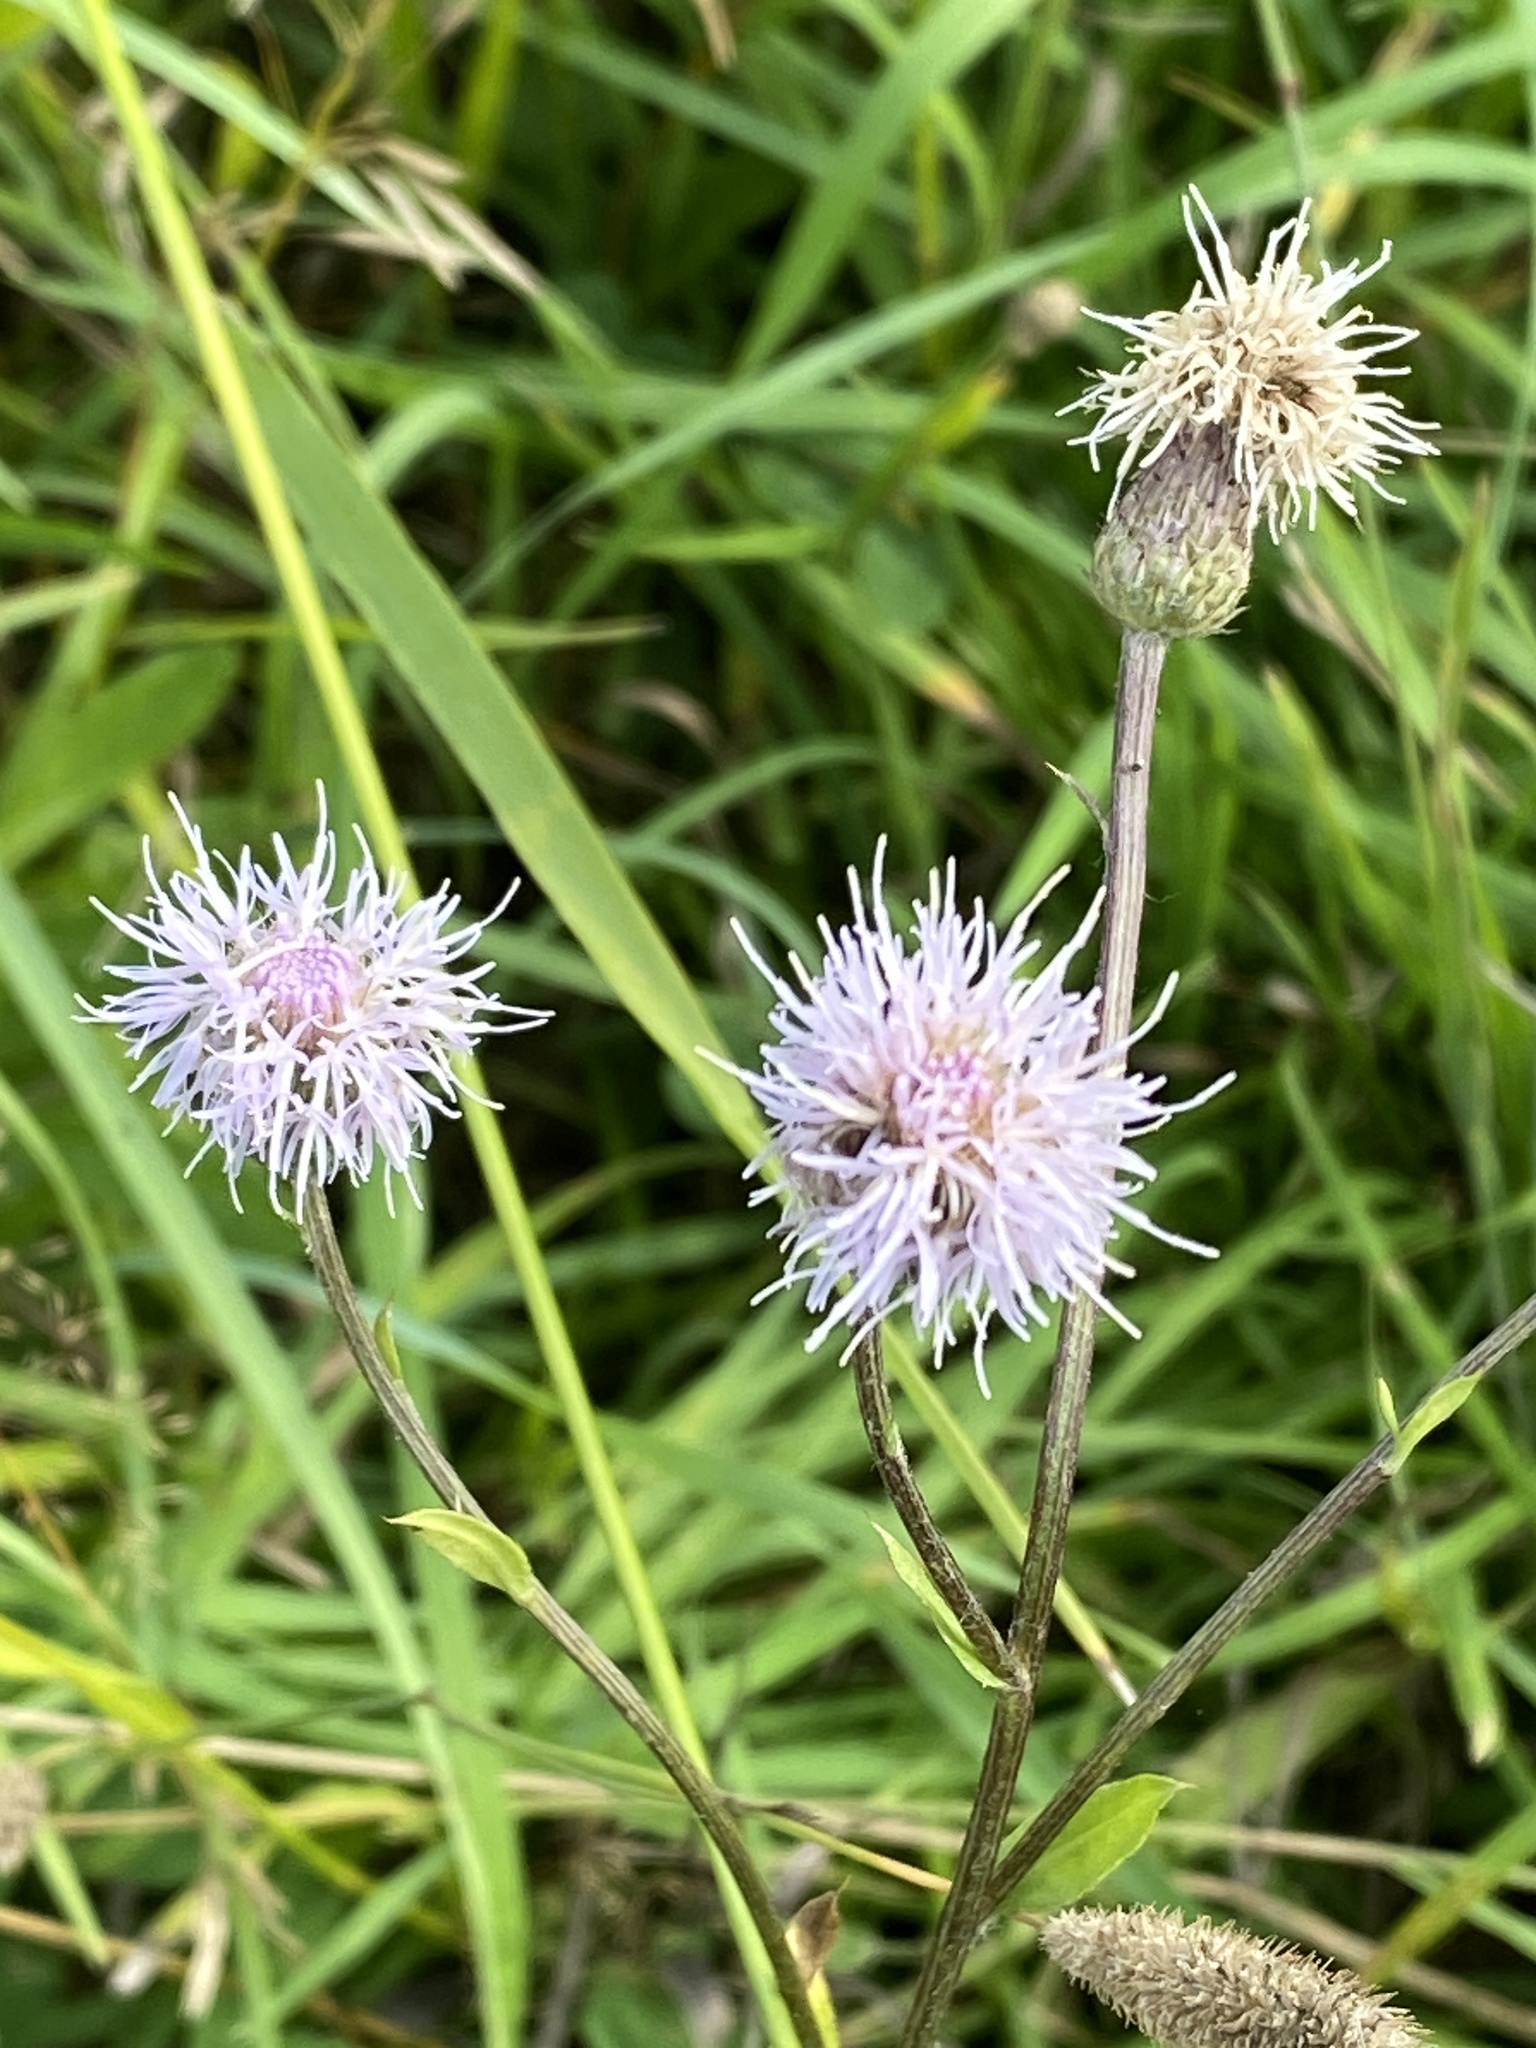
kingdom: Plantae
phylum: Tracheophyta
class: Magnoliopsida
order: Asterales
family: Asteraceae
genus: Cirsium
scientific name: Cirsium arvense
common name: Creeping thistle
